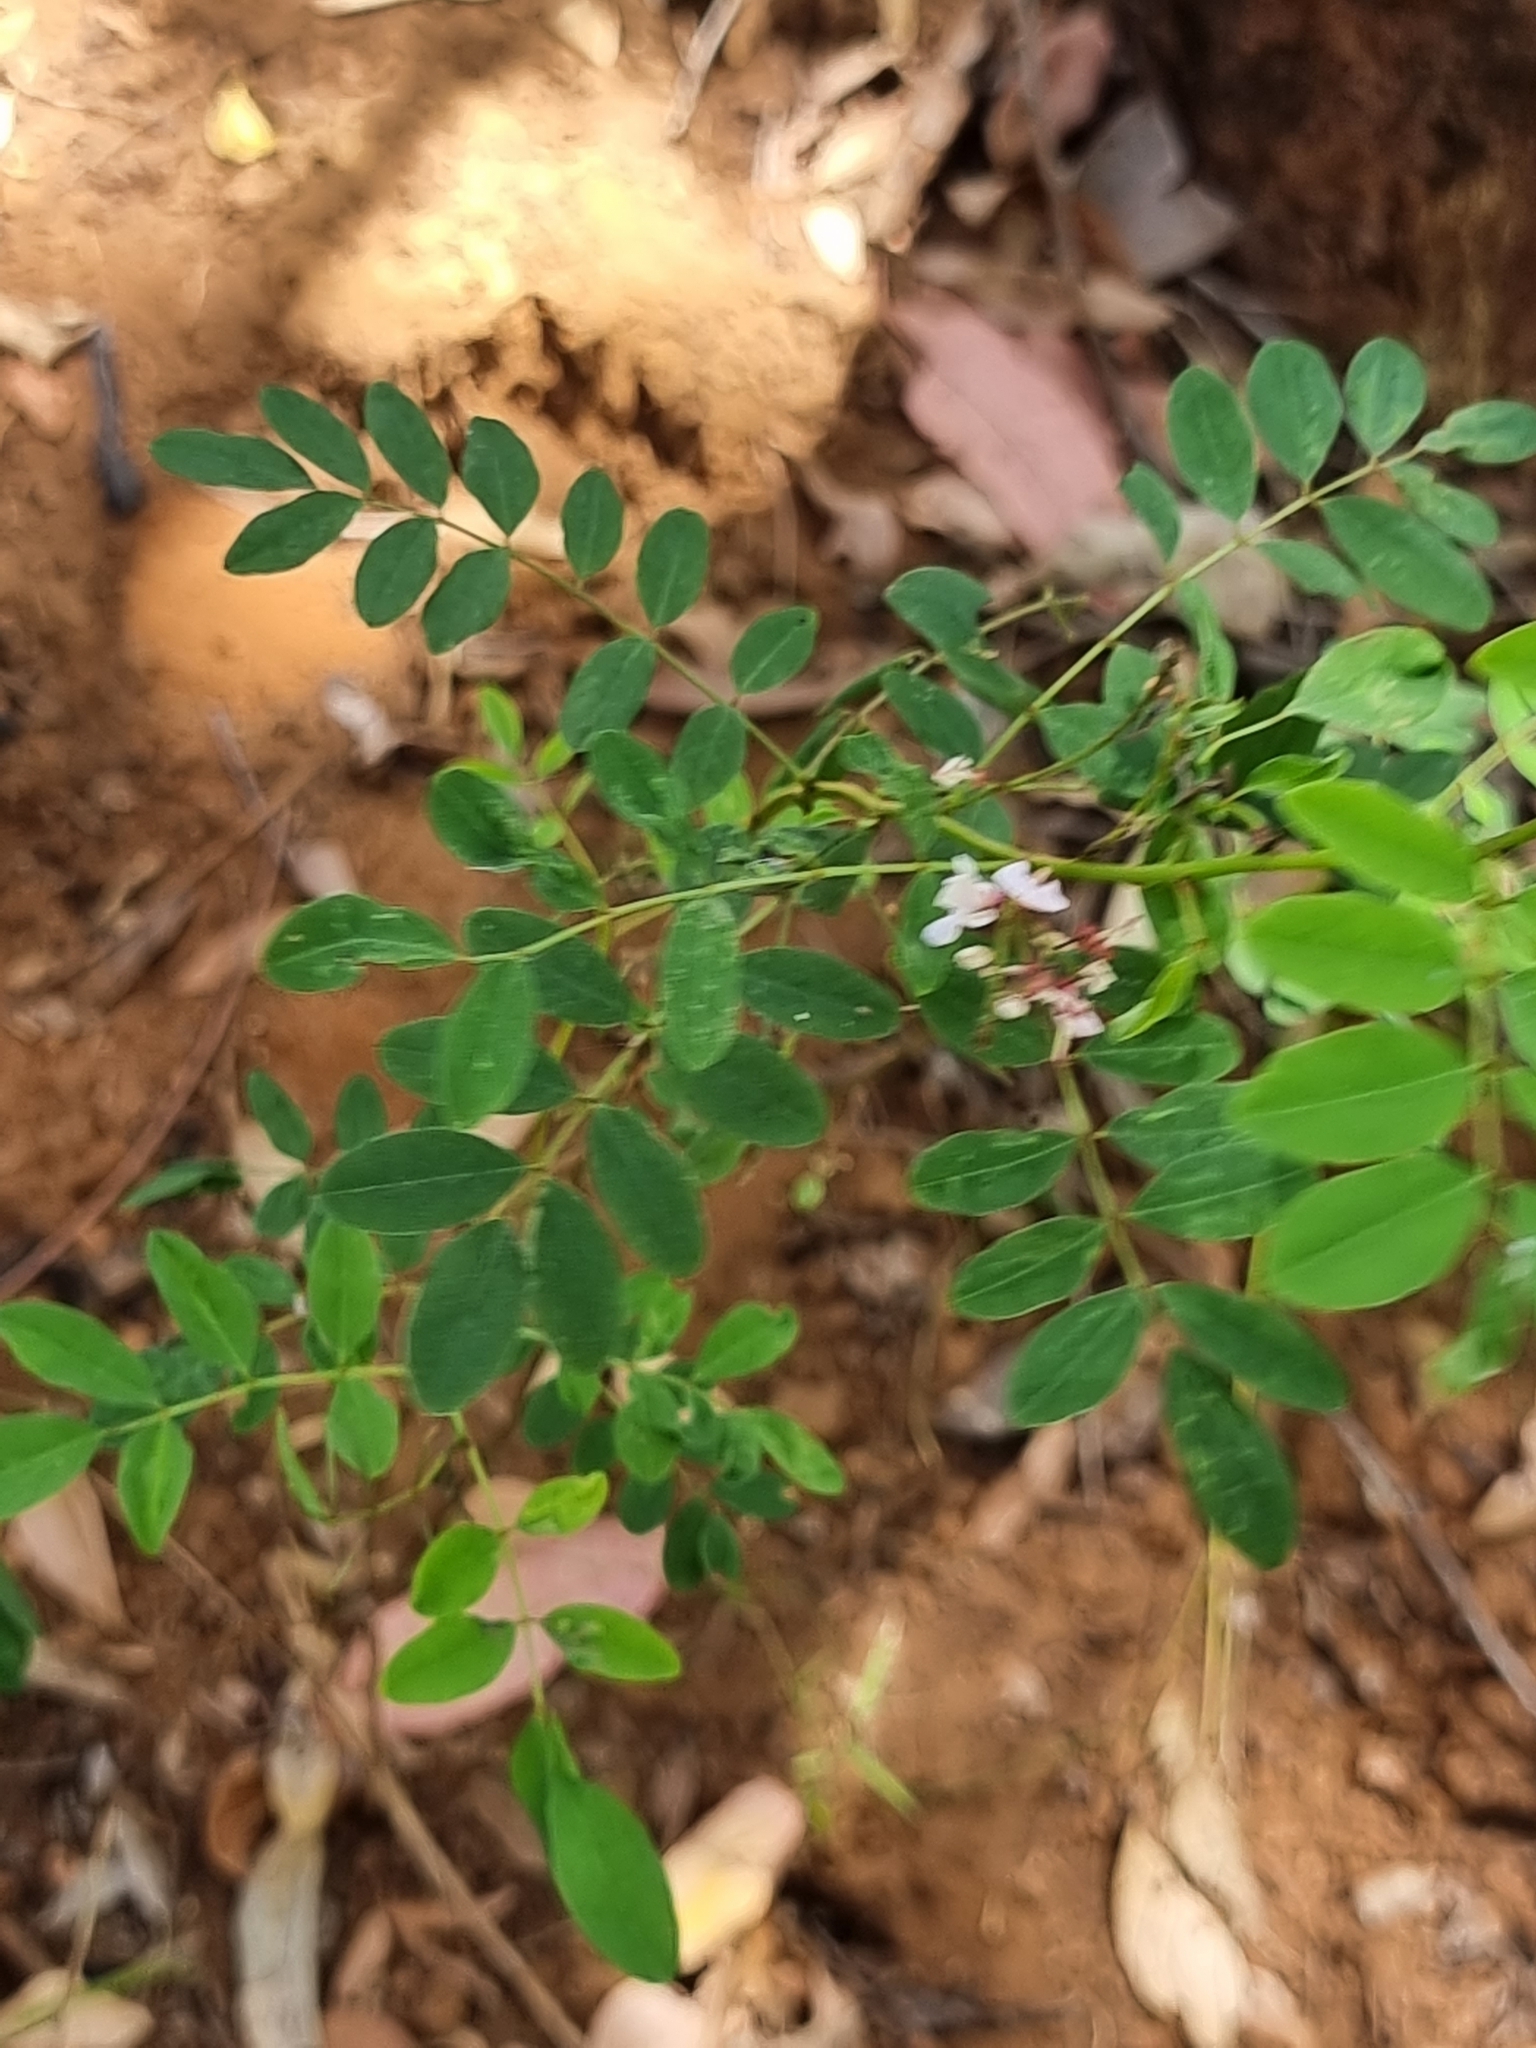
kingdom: Plantae
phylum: Tracheophyta
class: Magnoliopsida
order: Fabales
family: Fabaceae
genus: Indigofera
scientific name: Indigofera australis
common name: Australian indigo
